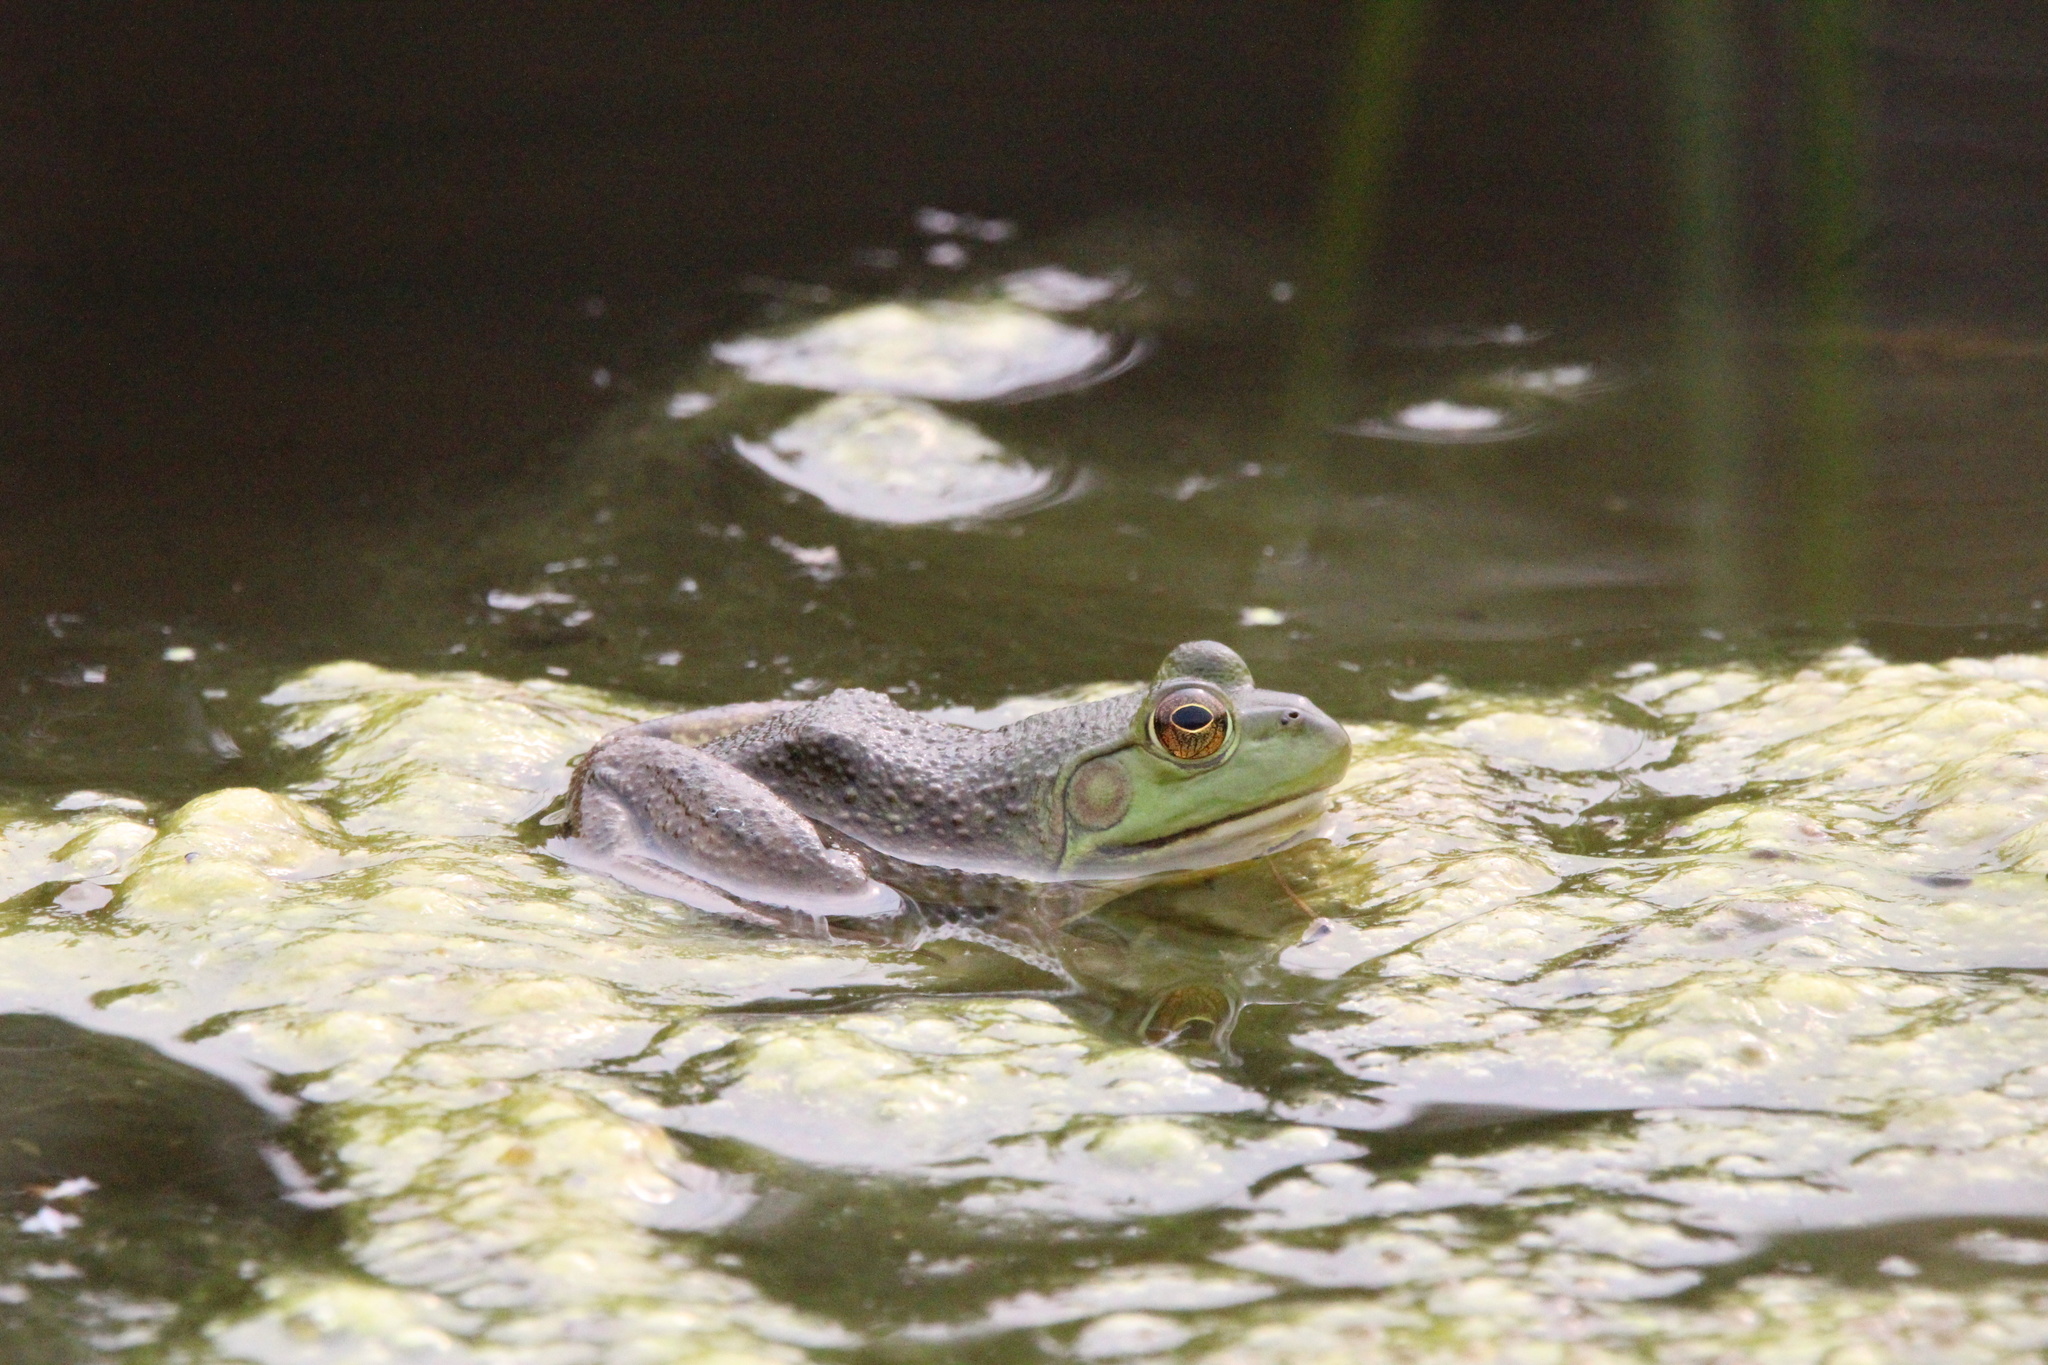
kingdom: Animalia
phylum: Chordata
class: Amphibia
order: Anura
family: Ranidae
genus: Lithobates
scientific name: Lithobates catesbeianus
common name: American bullfrog
